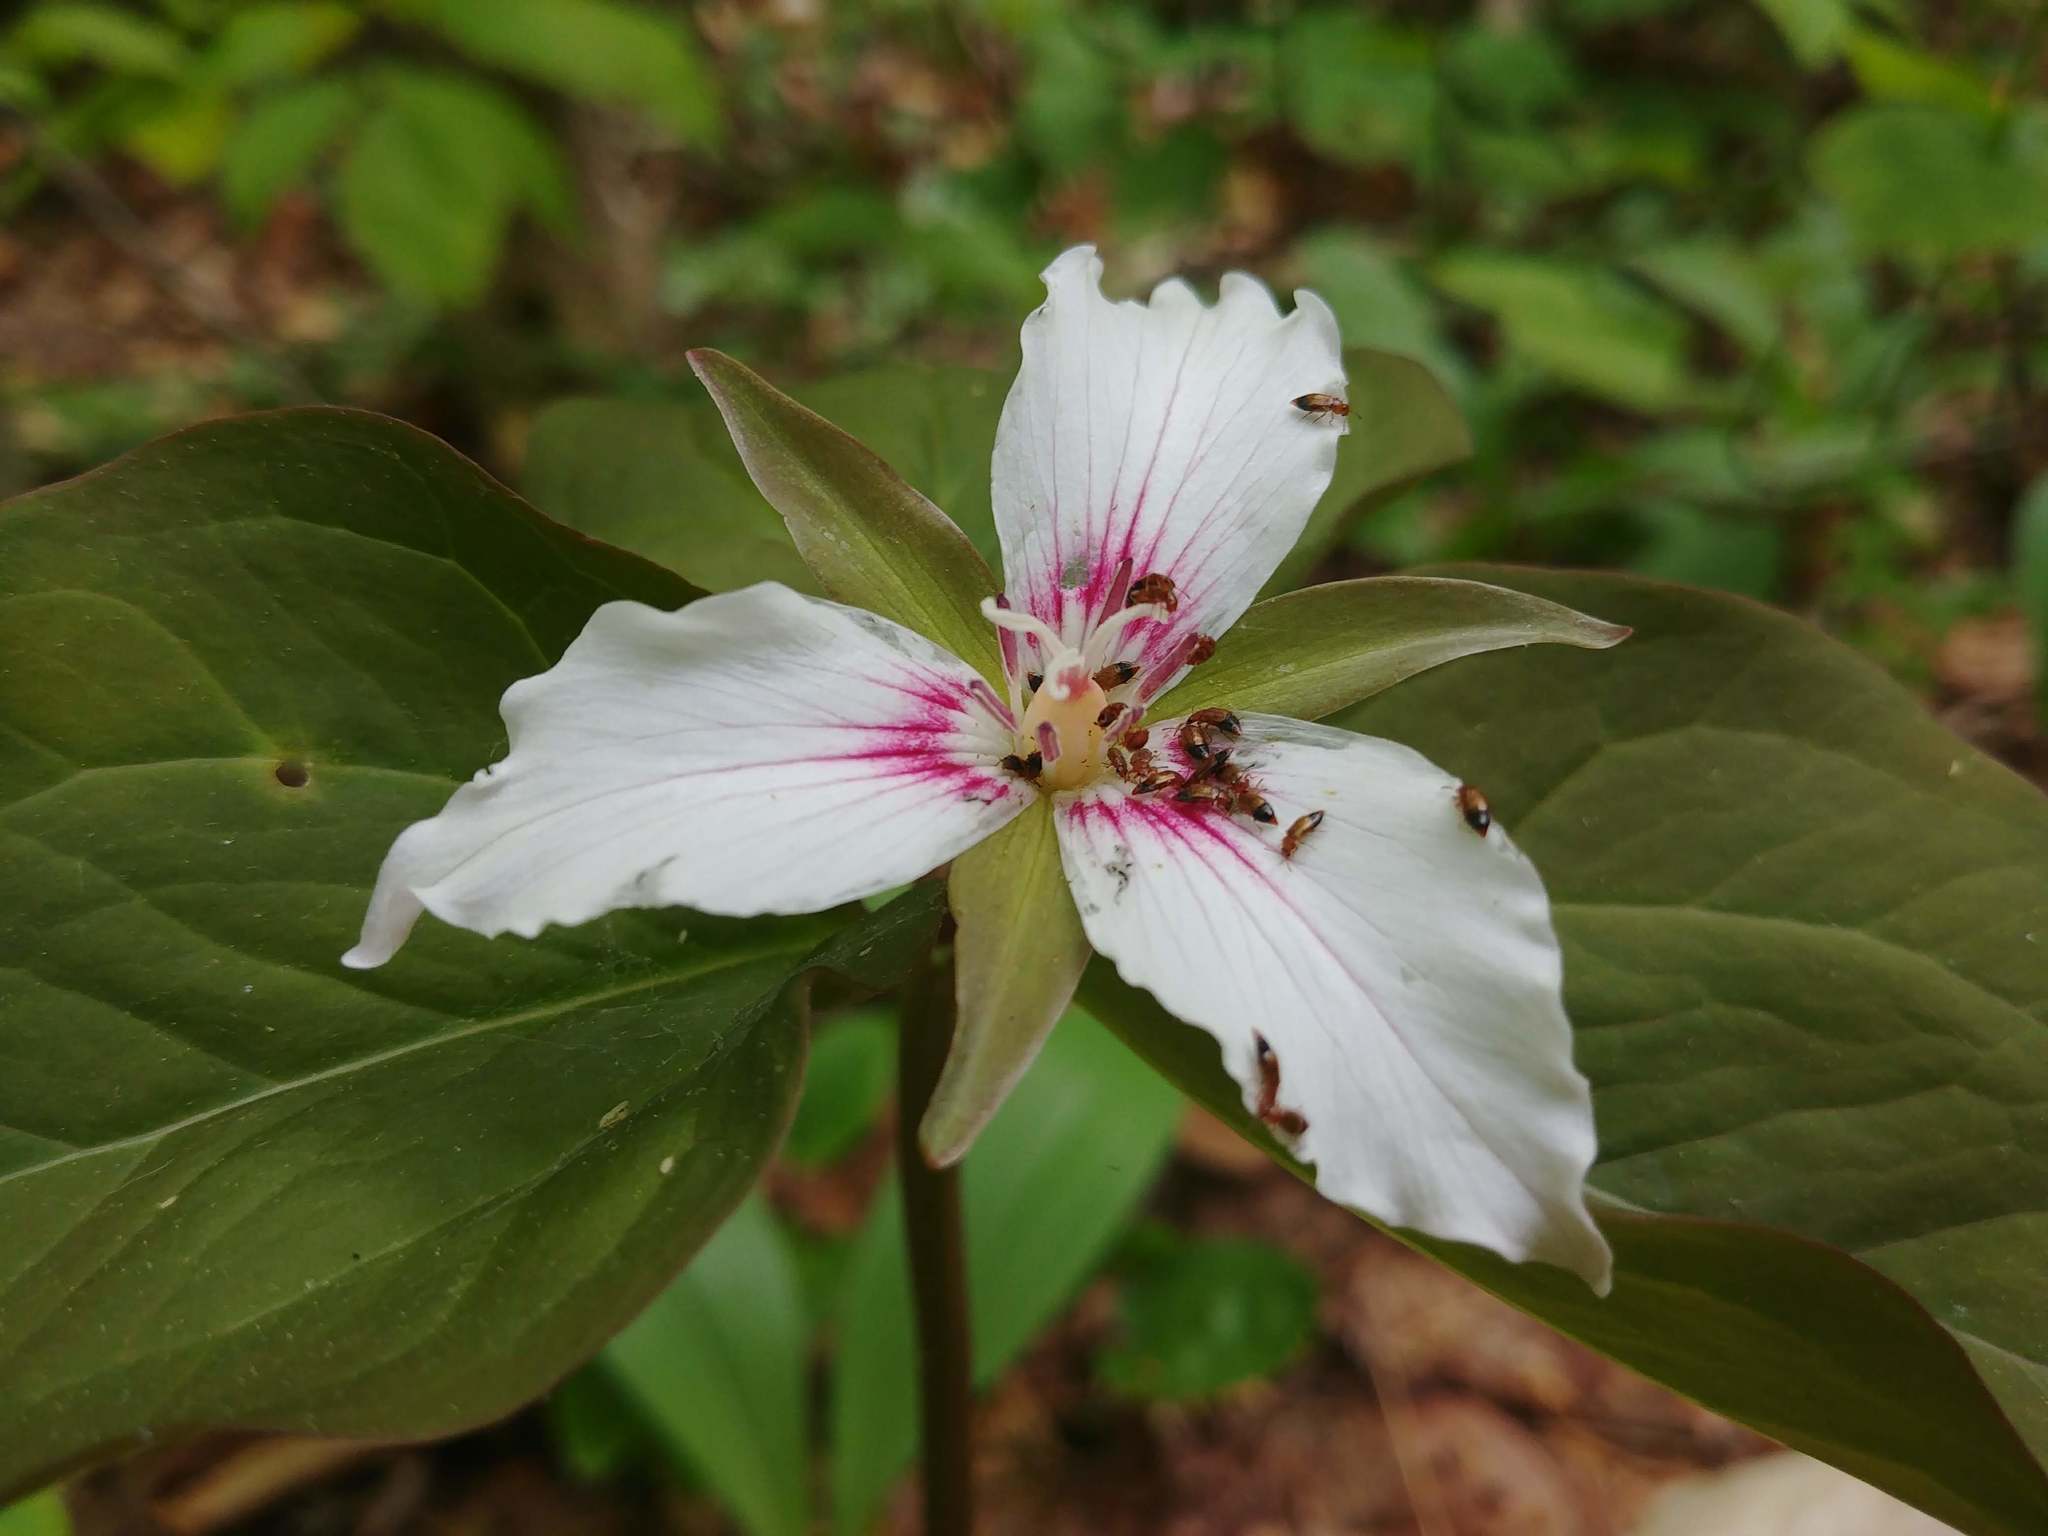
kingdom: Plantae
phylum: Tracheophyta
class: Liliopsida
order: Liliales
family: Melanthiaceae
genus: Trillium
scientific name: Trillium undulatum
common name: Paint trillium
